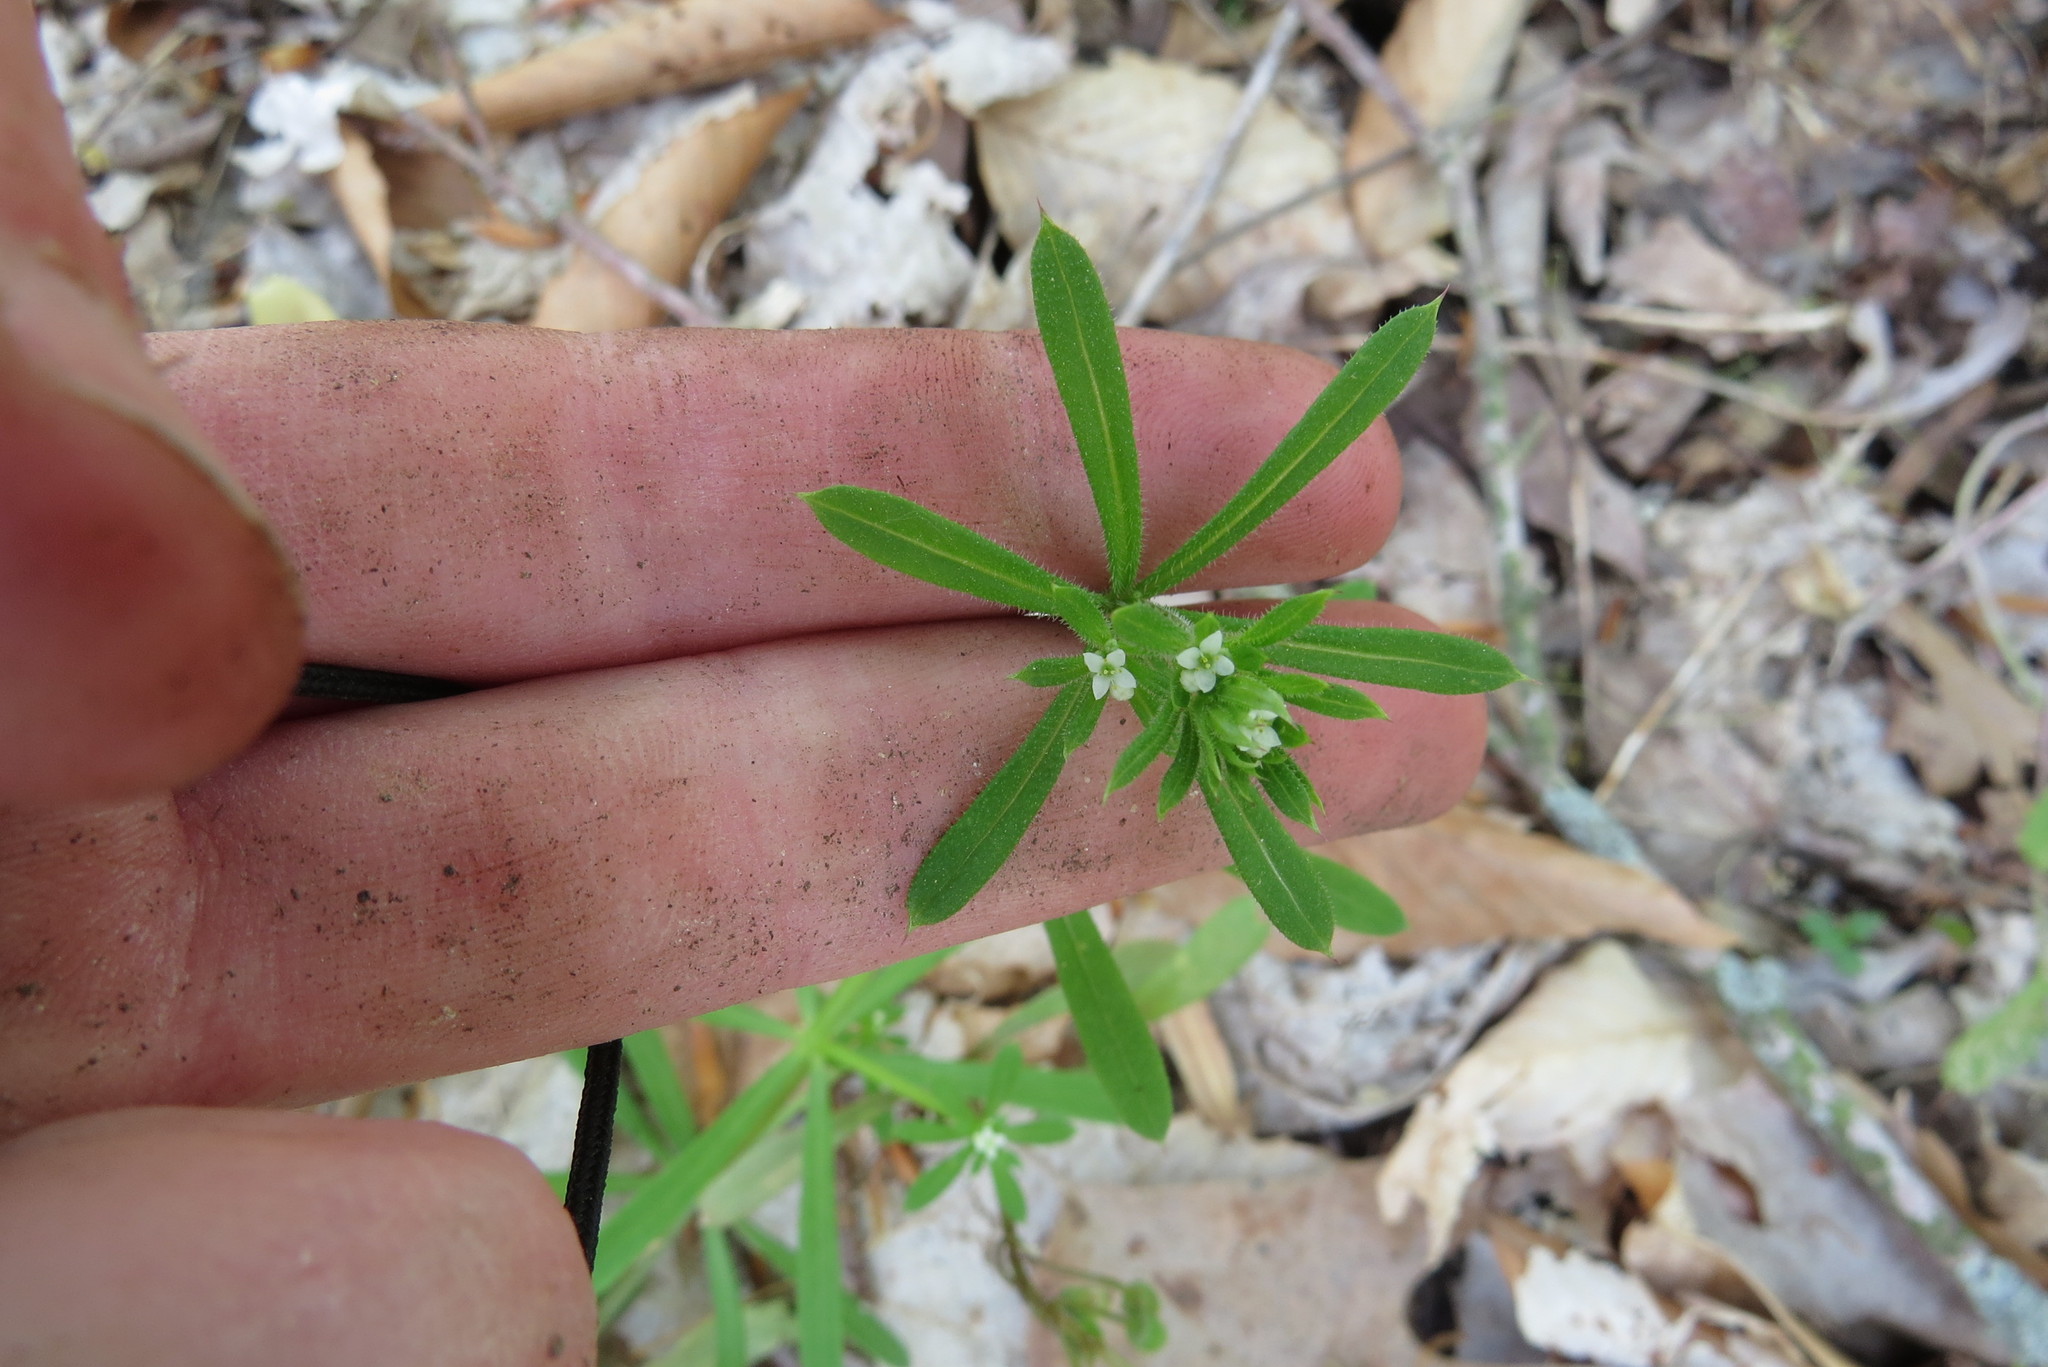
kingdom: Plantae
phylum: Tracheophyta
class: Magnoliopsida
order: Gentianales
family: Rubiaceae
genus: Galium
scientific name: Galium aparine
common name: Cleavers
